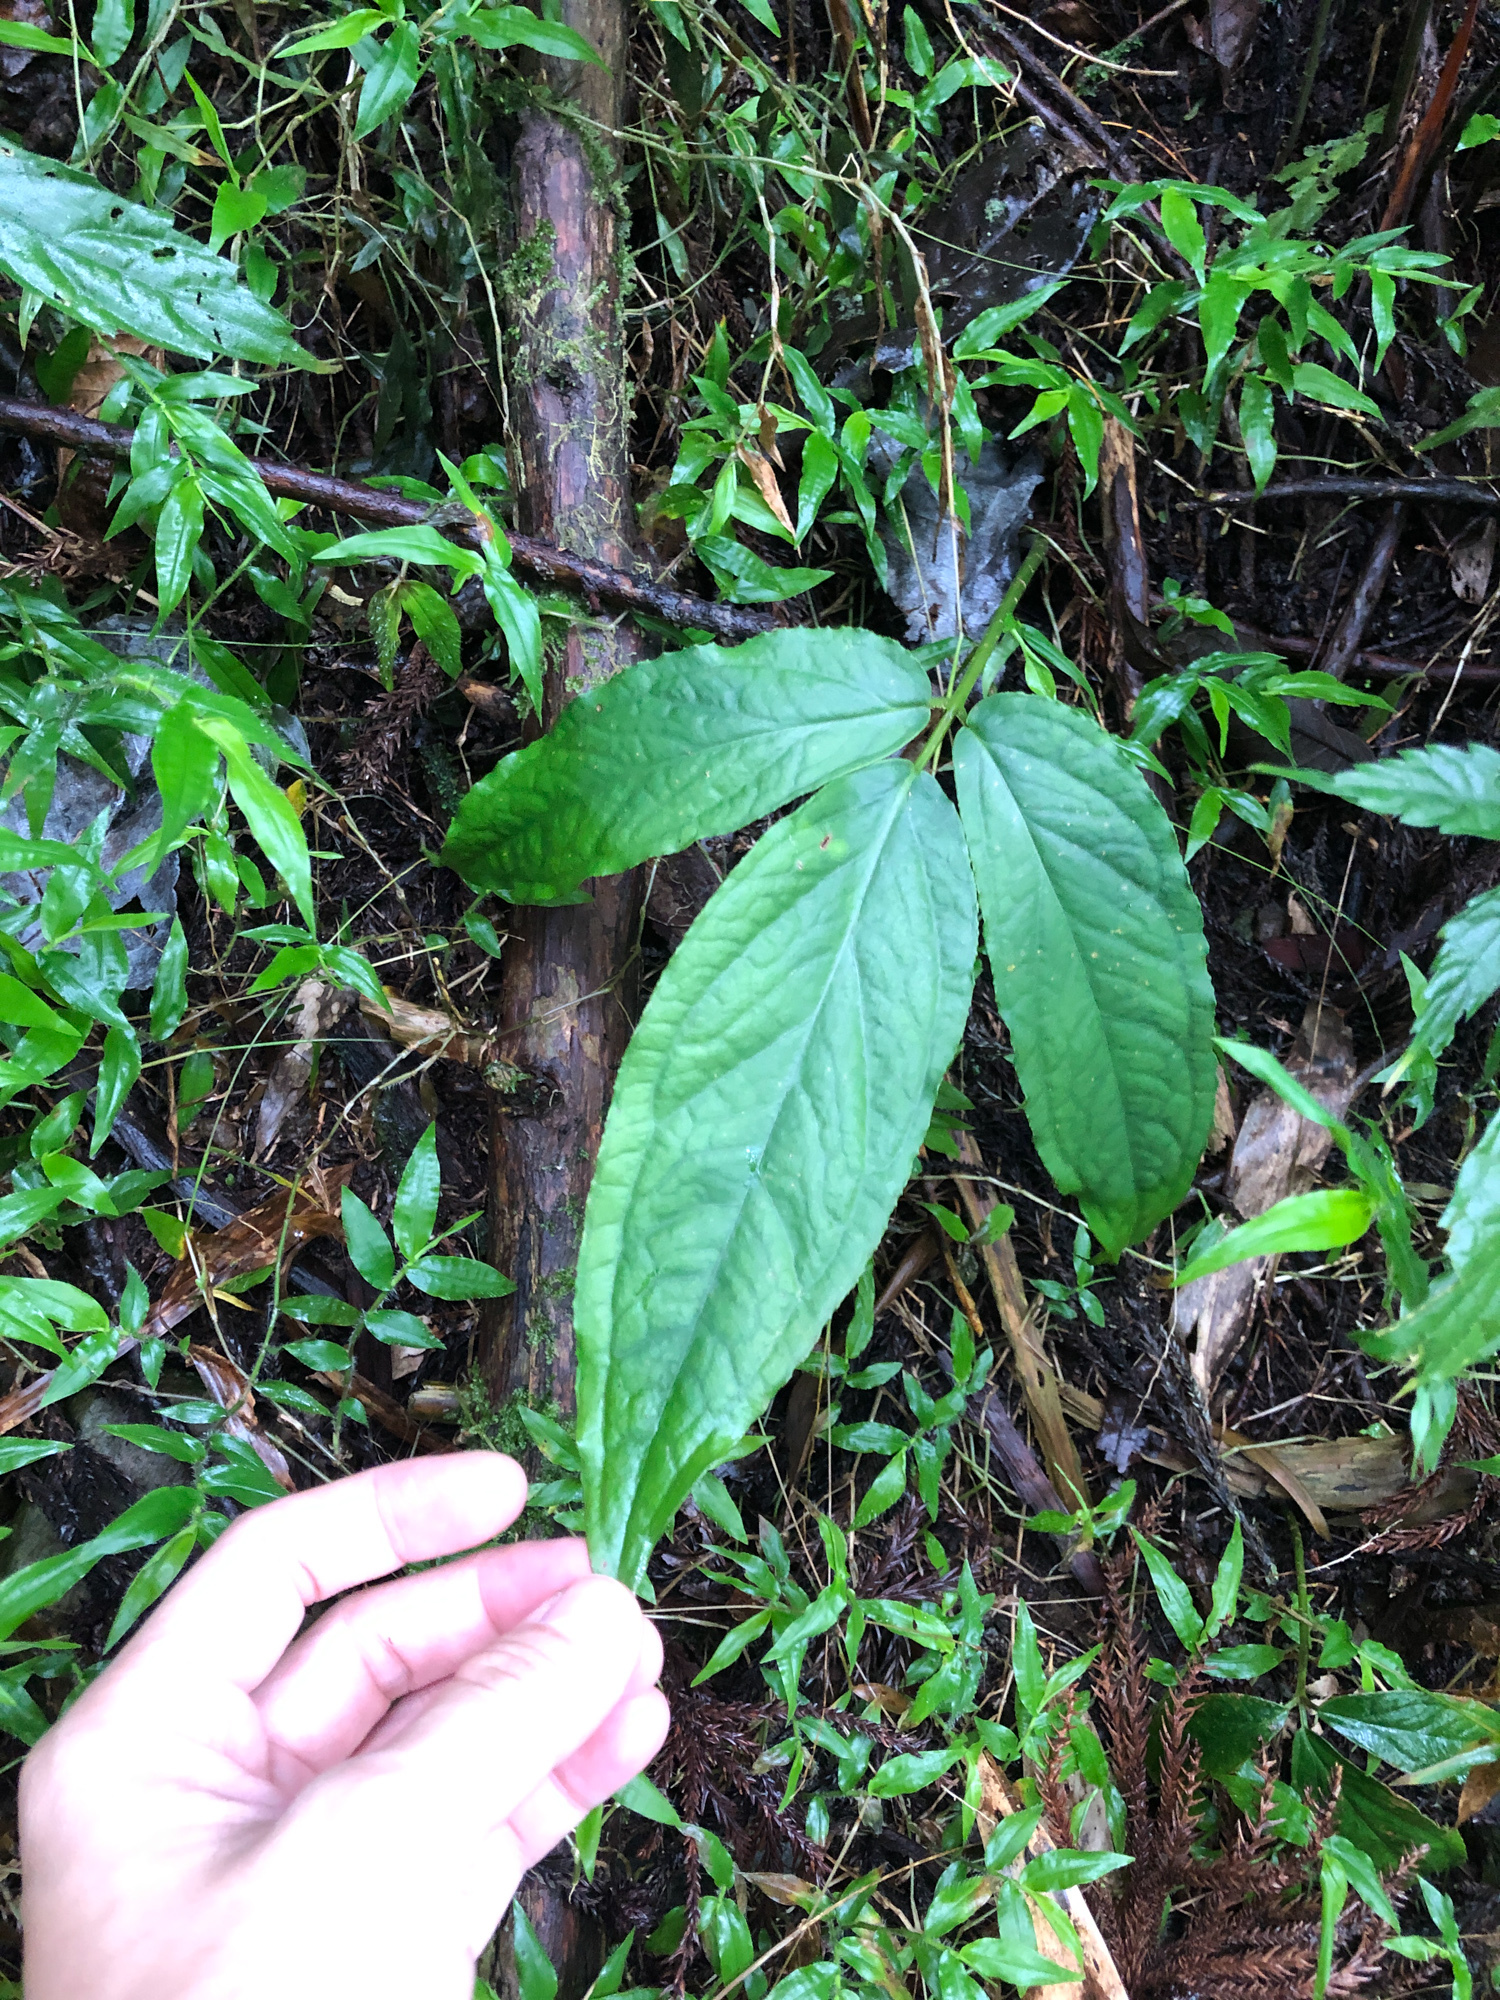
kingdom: Plantae
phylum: Tracheophyta
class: Magnoliopsida
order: Lamiales
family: Lamiaceae
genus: Paraphlomis
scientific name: Paraphlomis javanica
